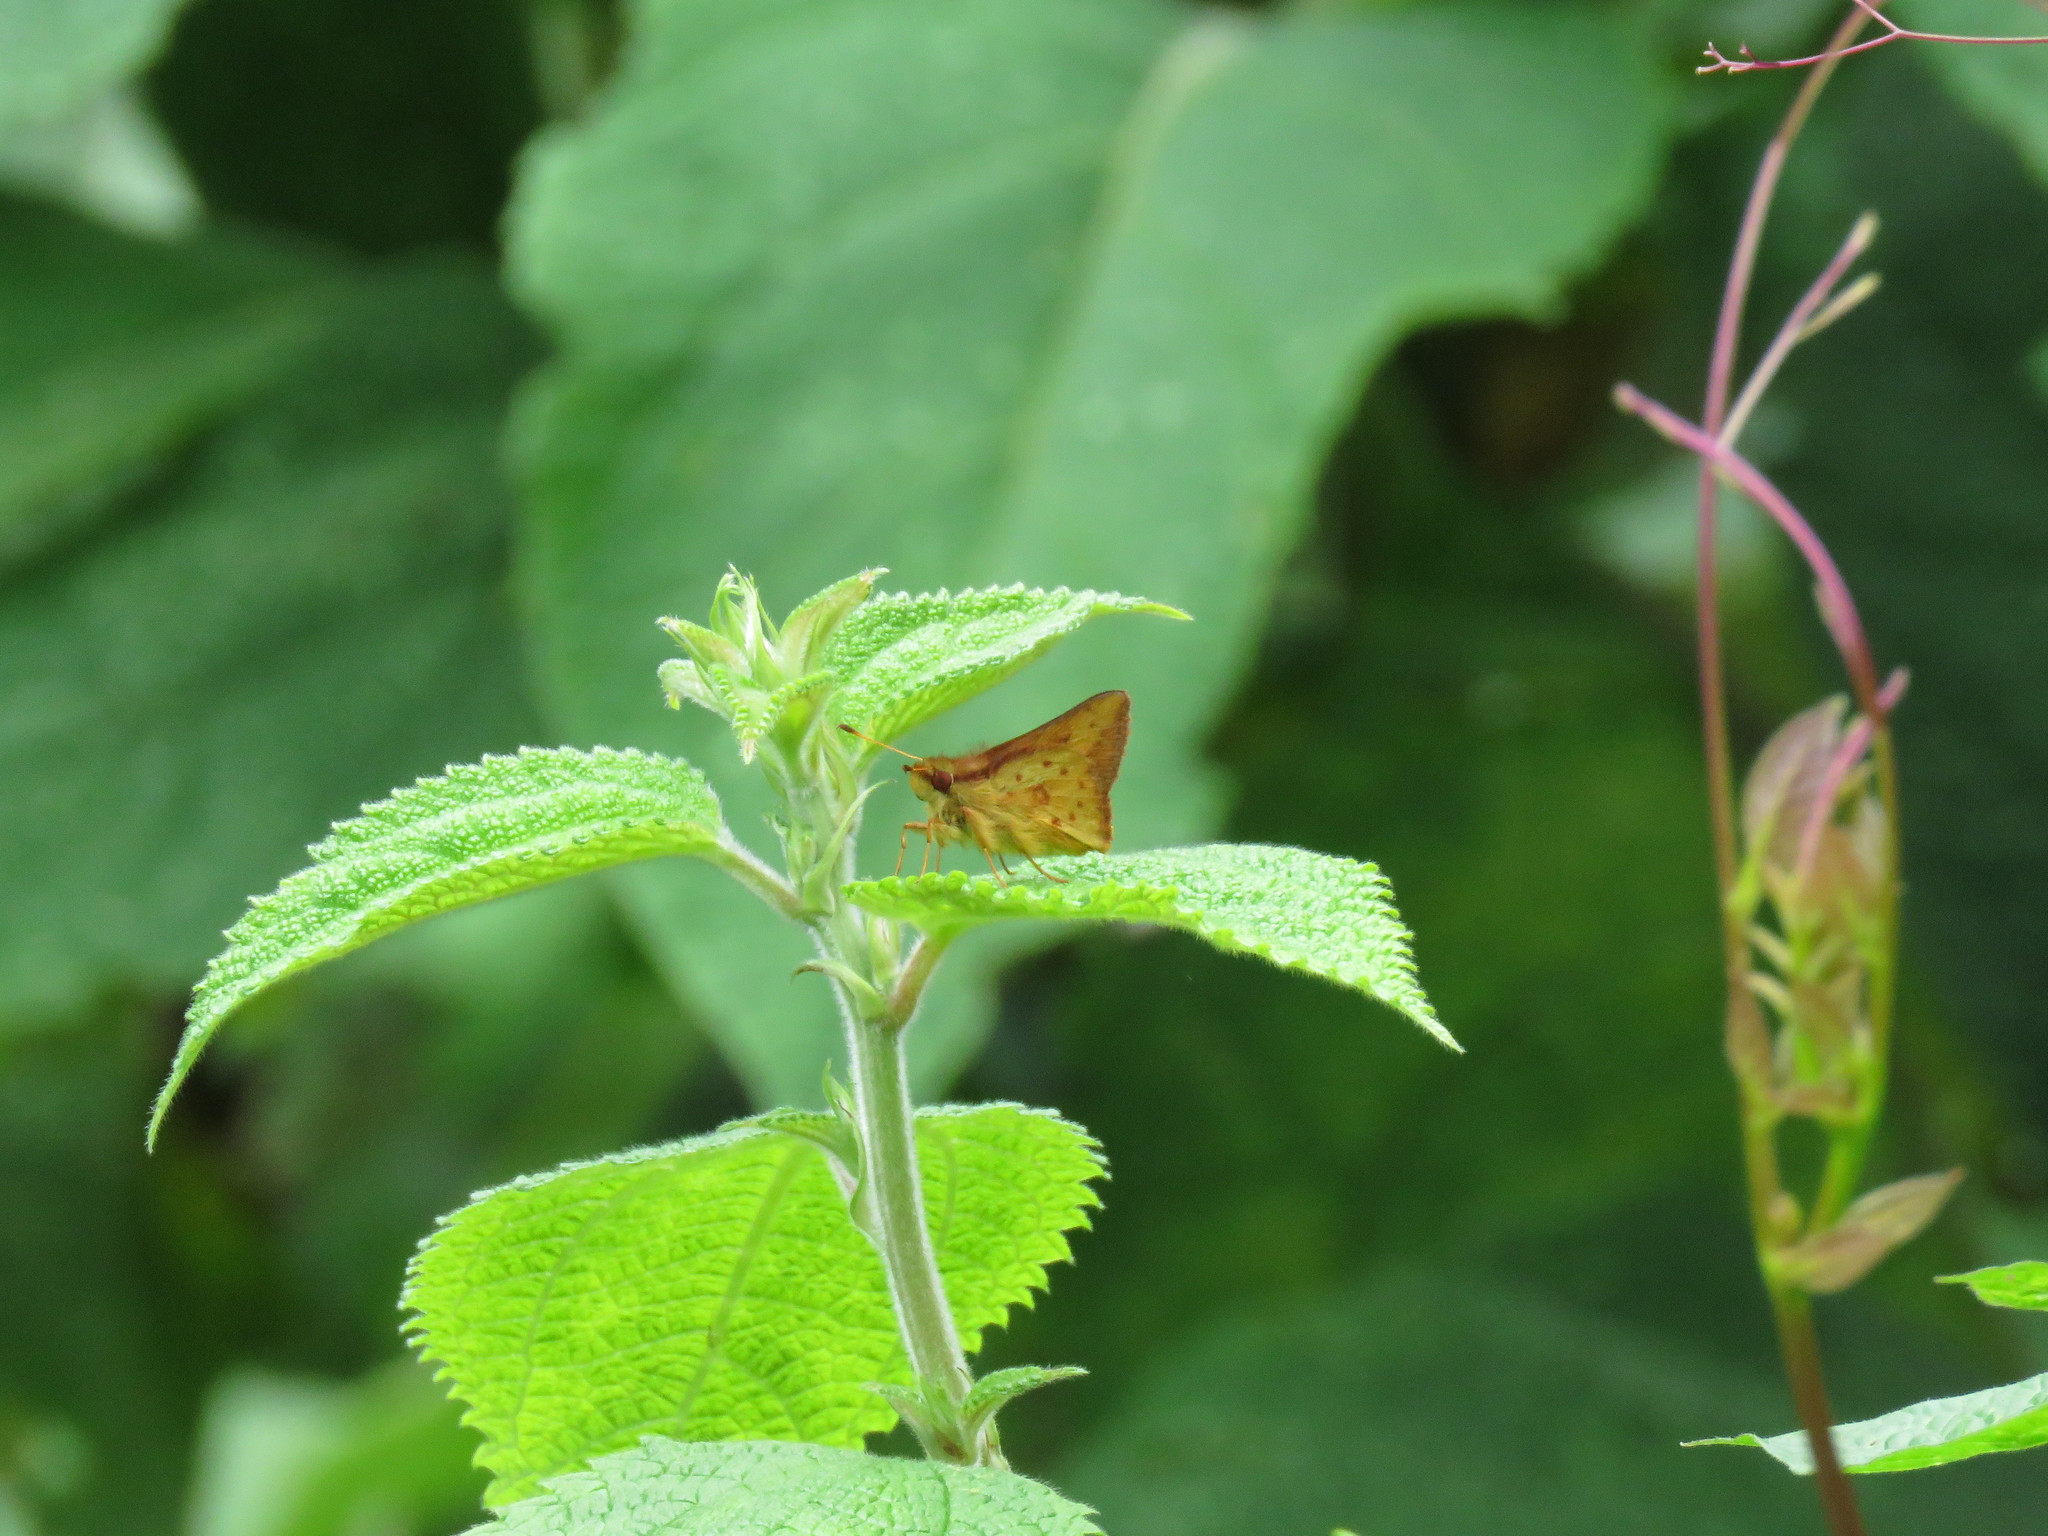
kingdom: Animalia
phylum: Arthropoda
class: Insecta
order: Lepidoptera
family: Hesperiidae
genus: Zalomes
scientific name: Zalomes biforis
